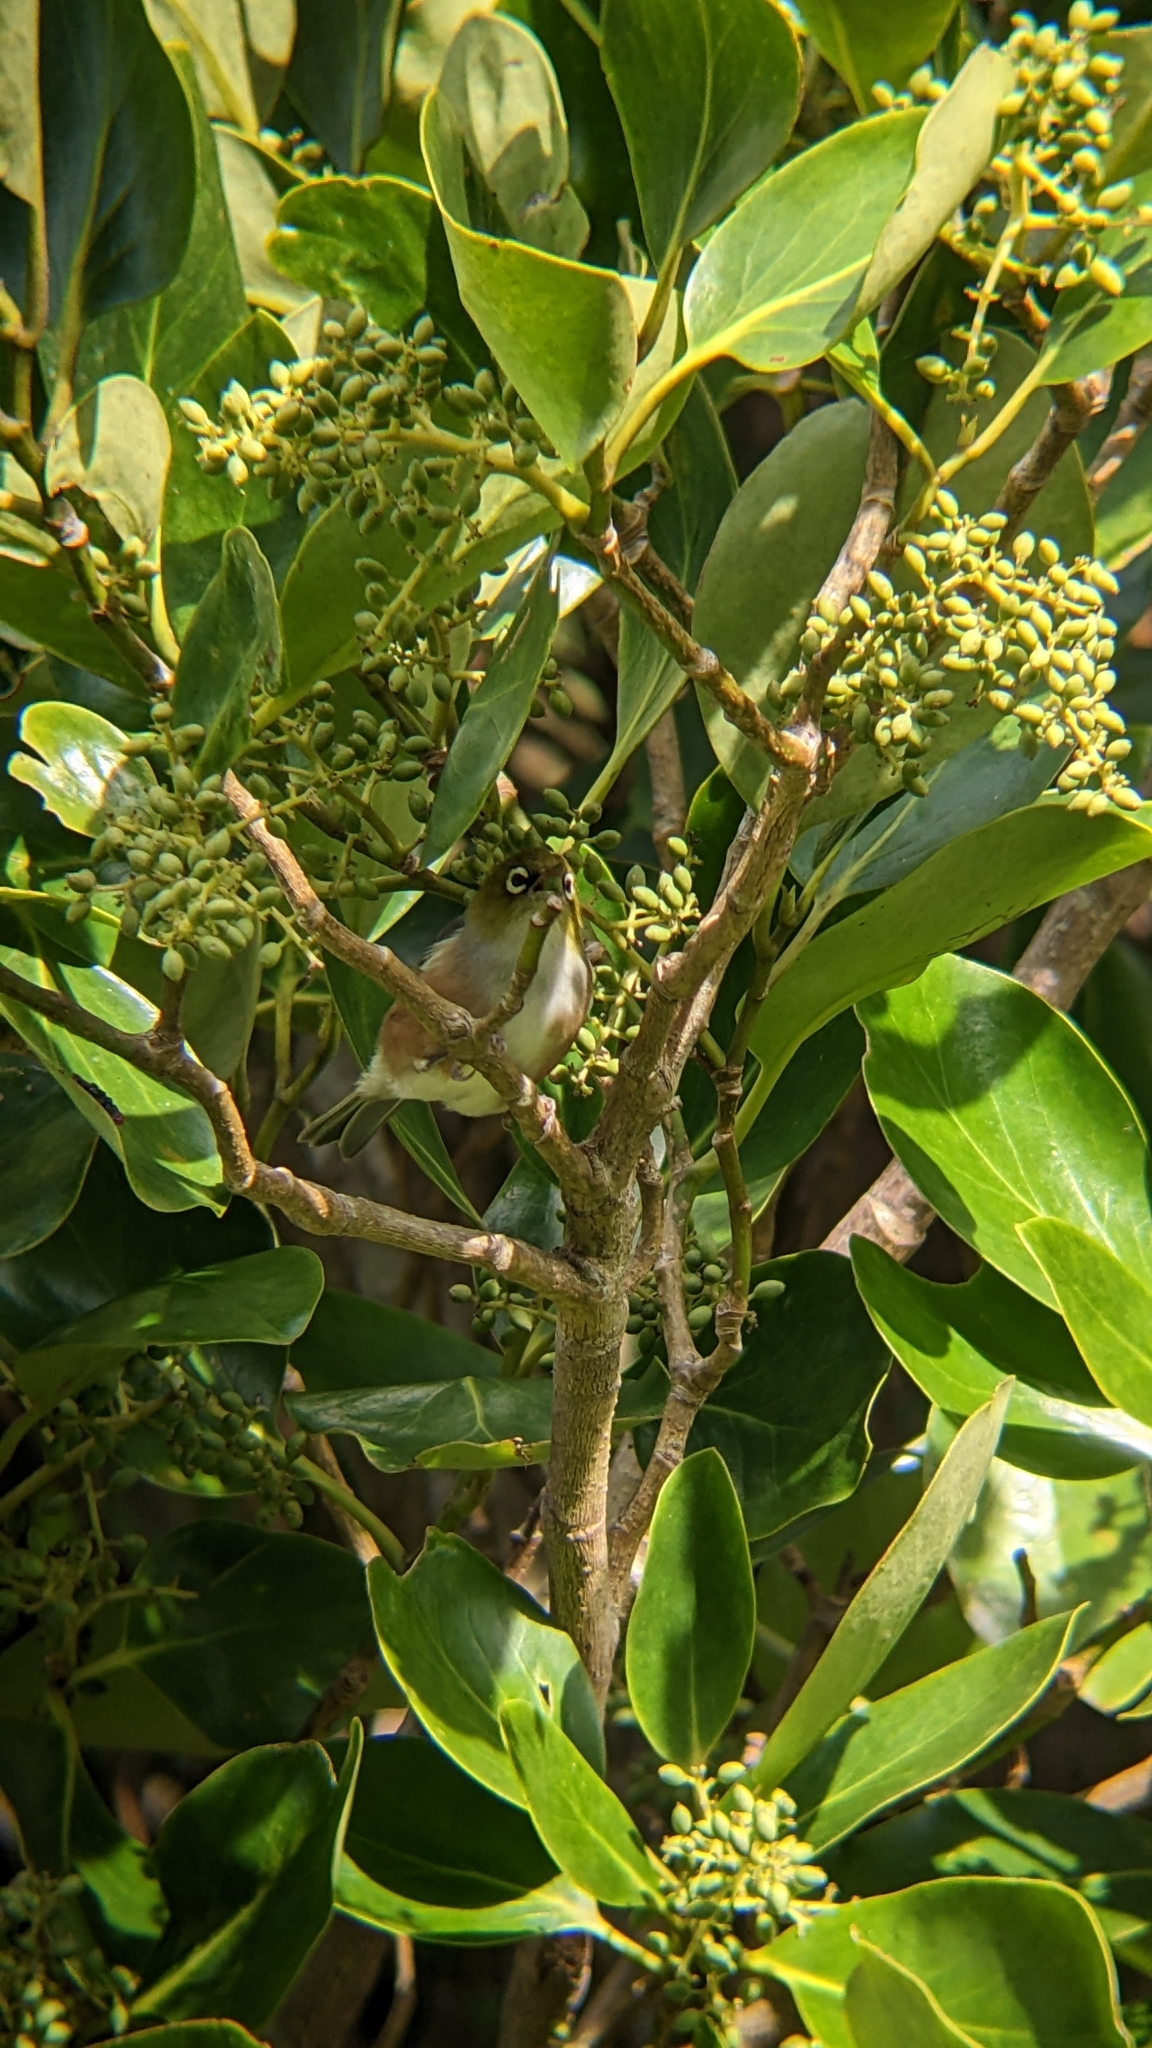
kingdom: Animalia
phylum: Chordata
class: Aves
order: Passeriformes
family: Zosteropidae
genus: Zosterops
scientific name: Zosterops lateralis
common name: Silvereye
